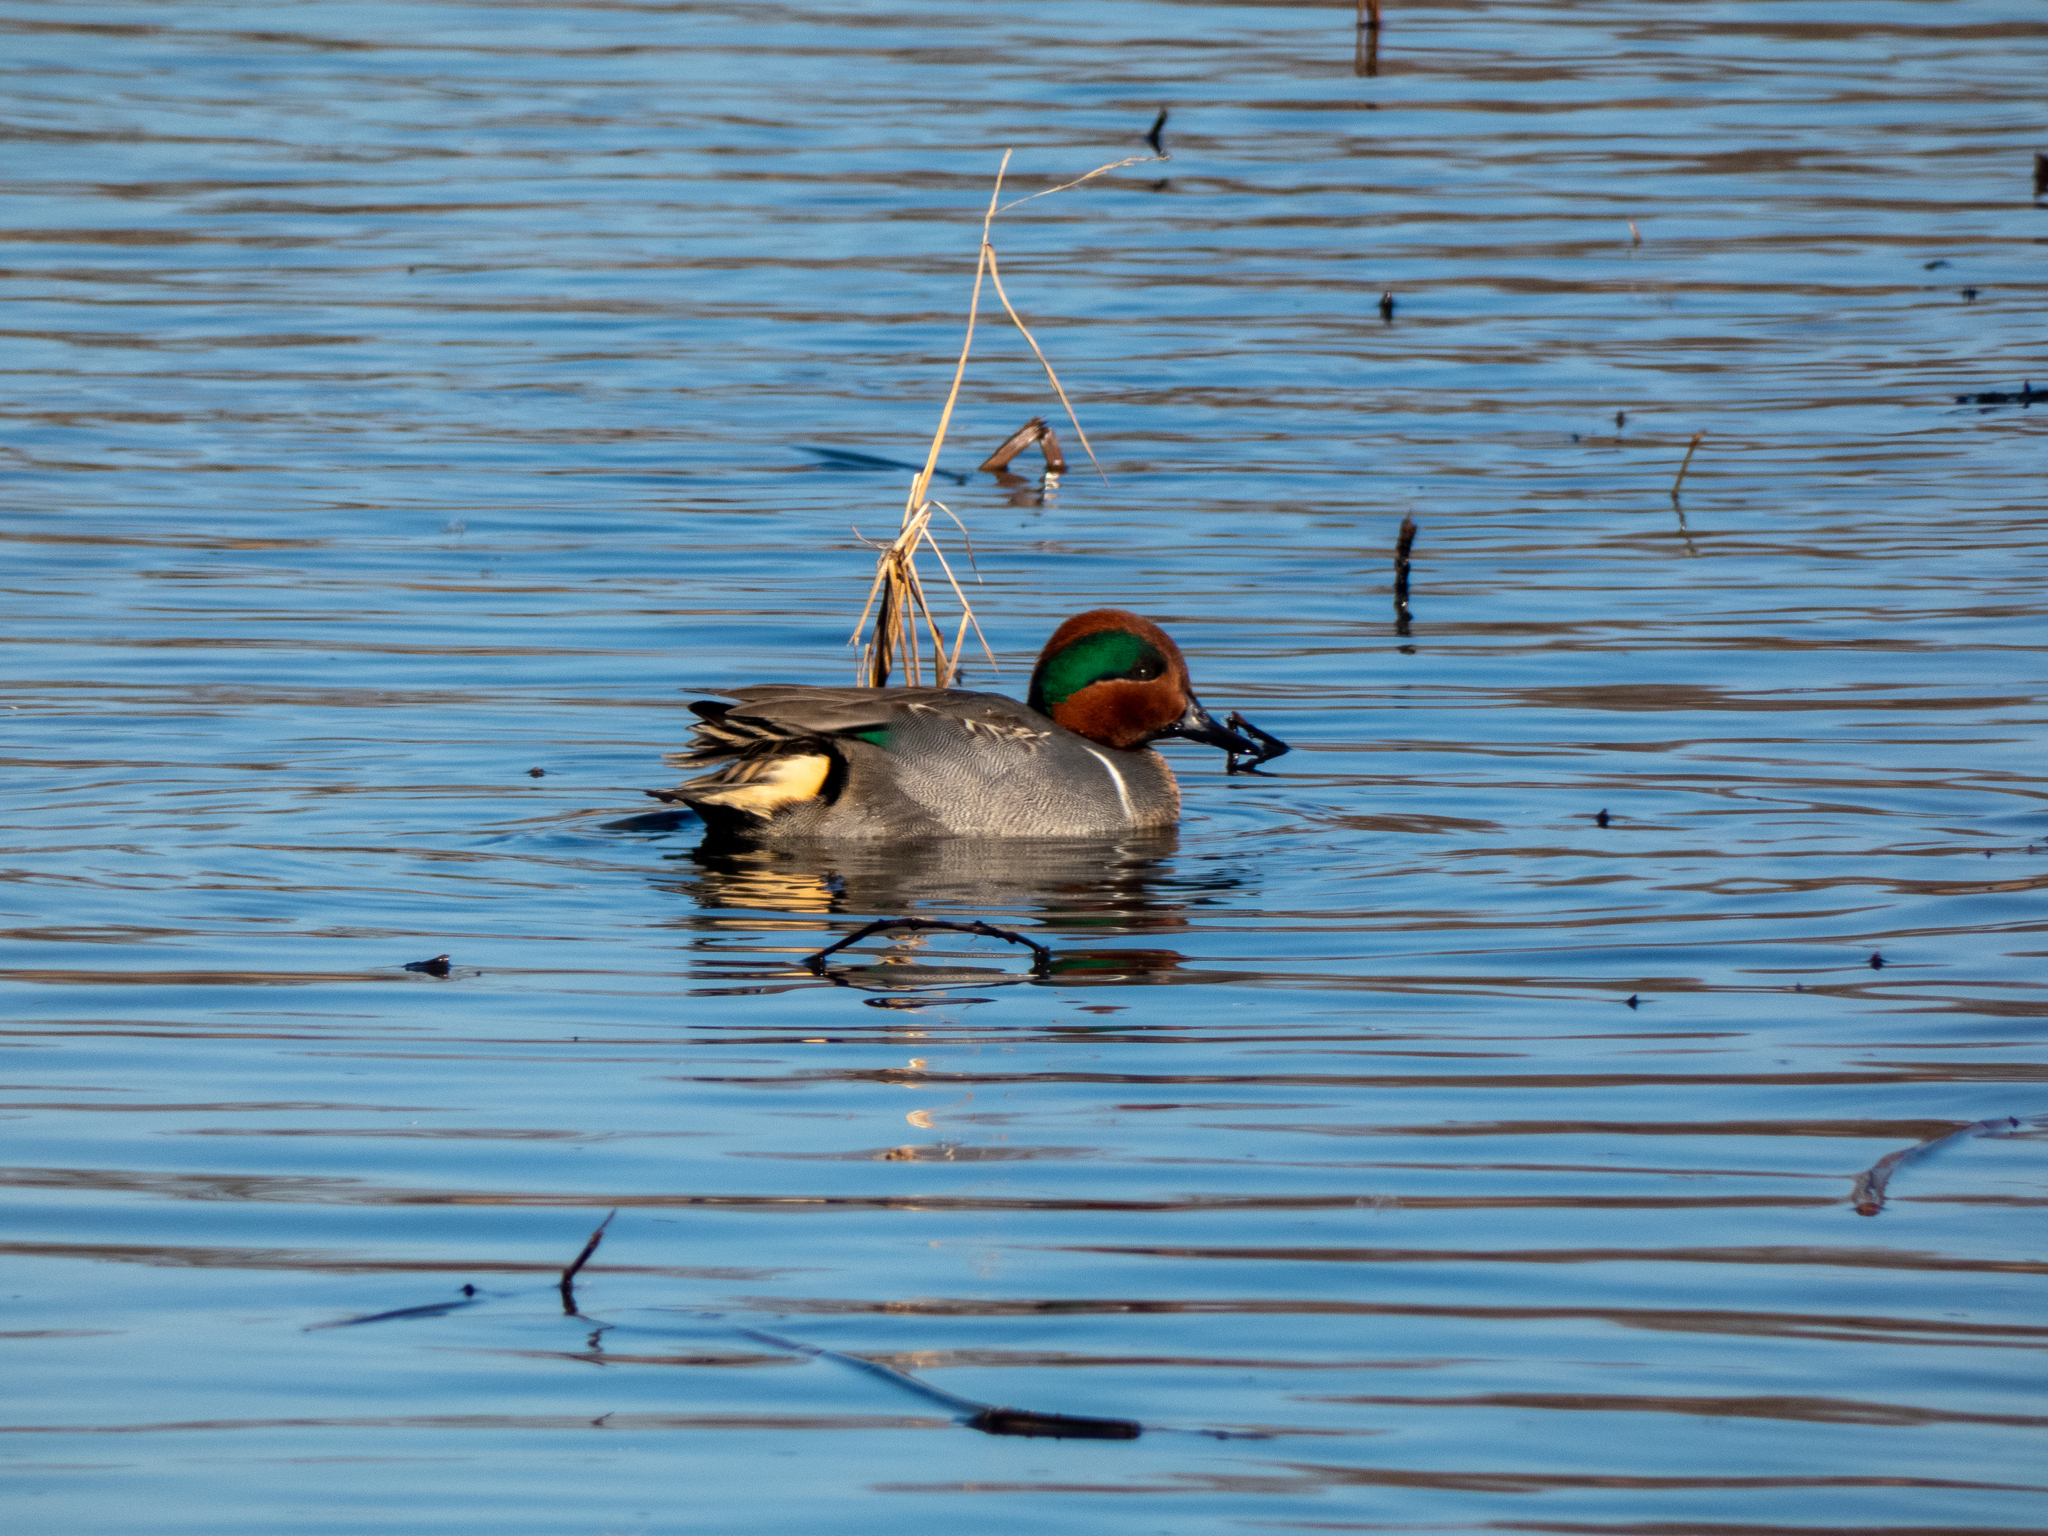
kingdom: Animalia
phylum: Chordata
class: Aves
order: Anseriformes
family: Anatidae
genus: Anas
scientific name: Anas crecca
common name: Eurasian teal
